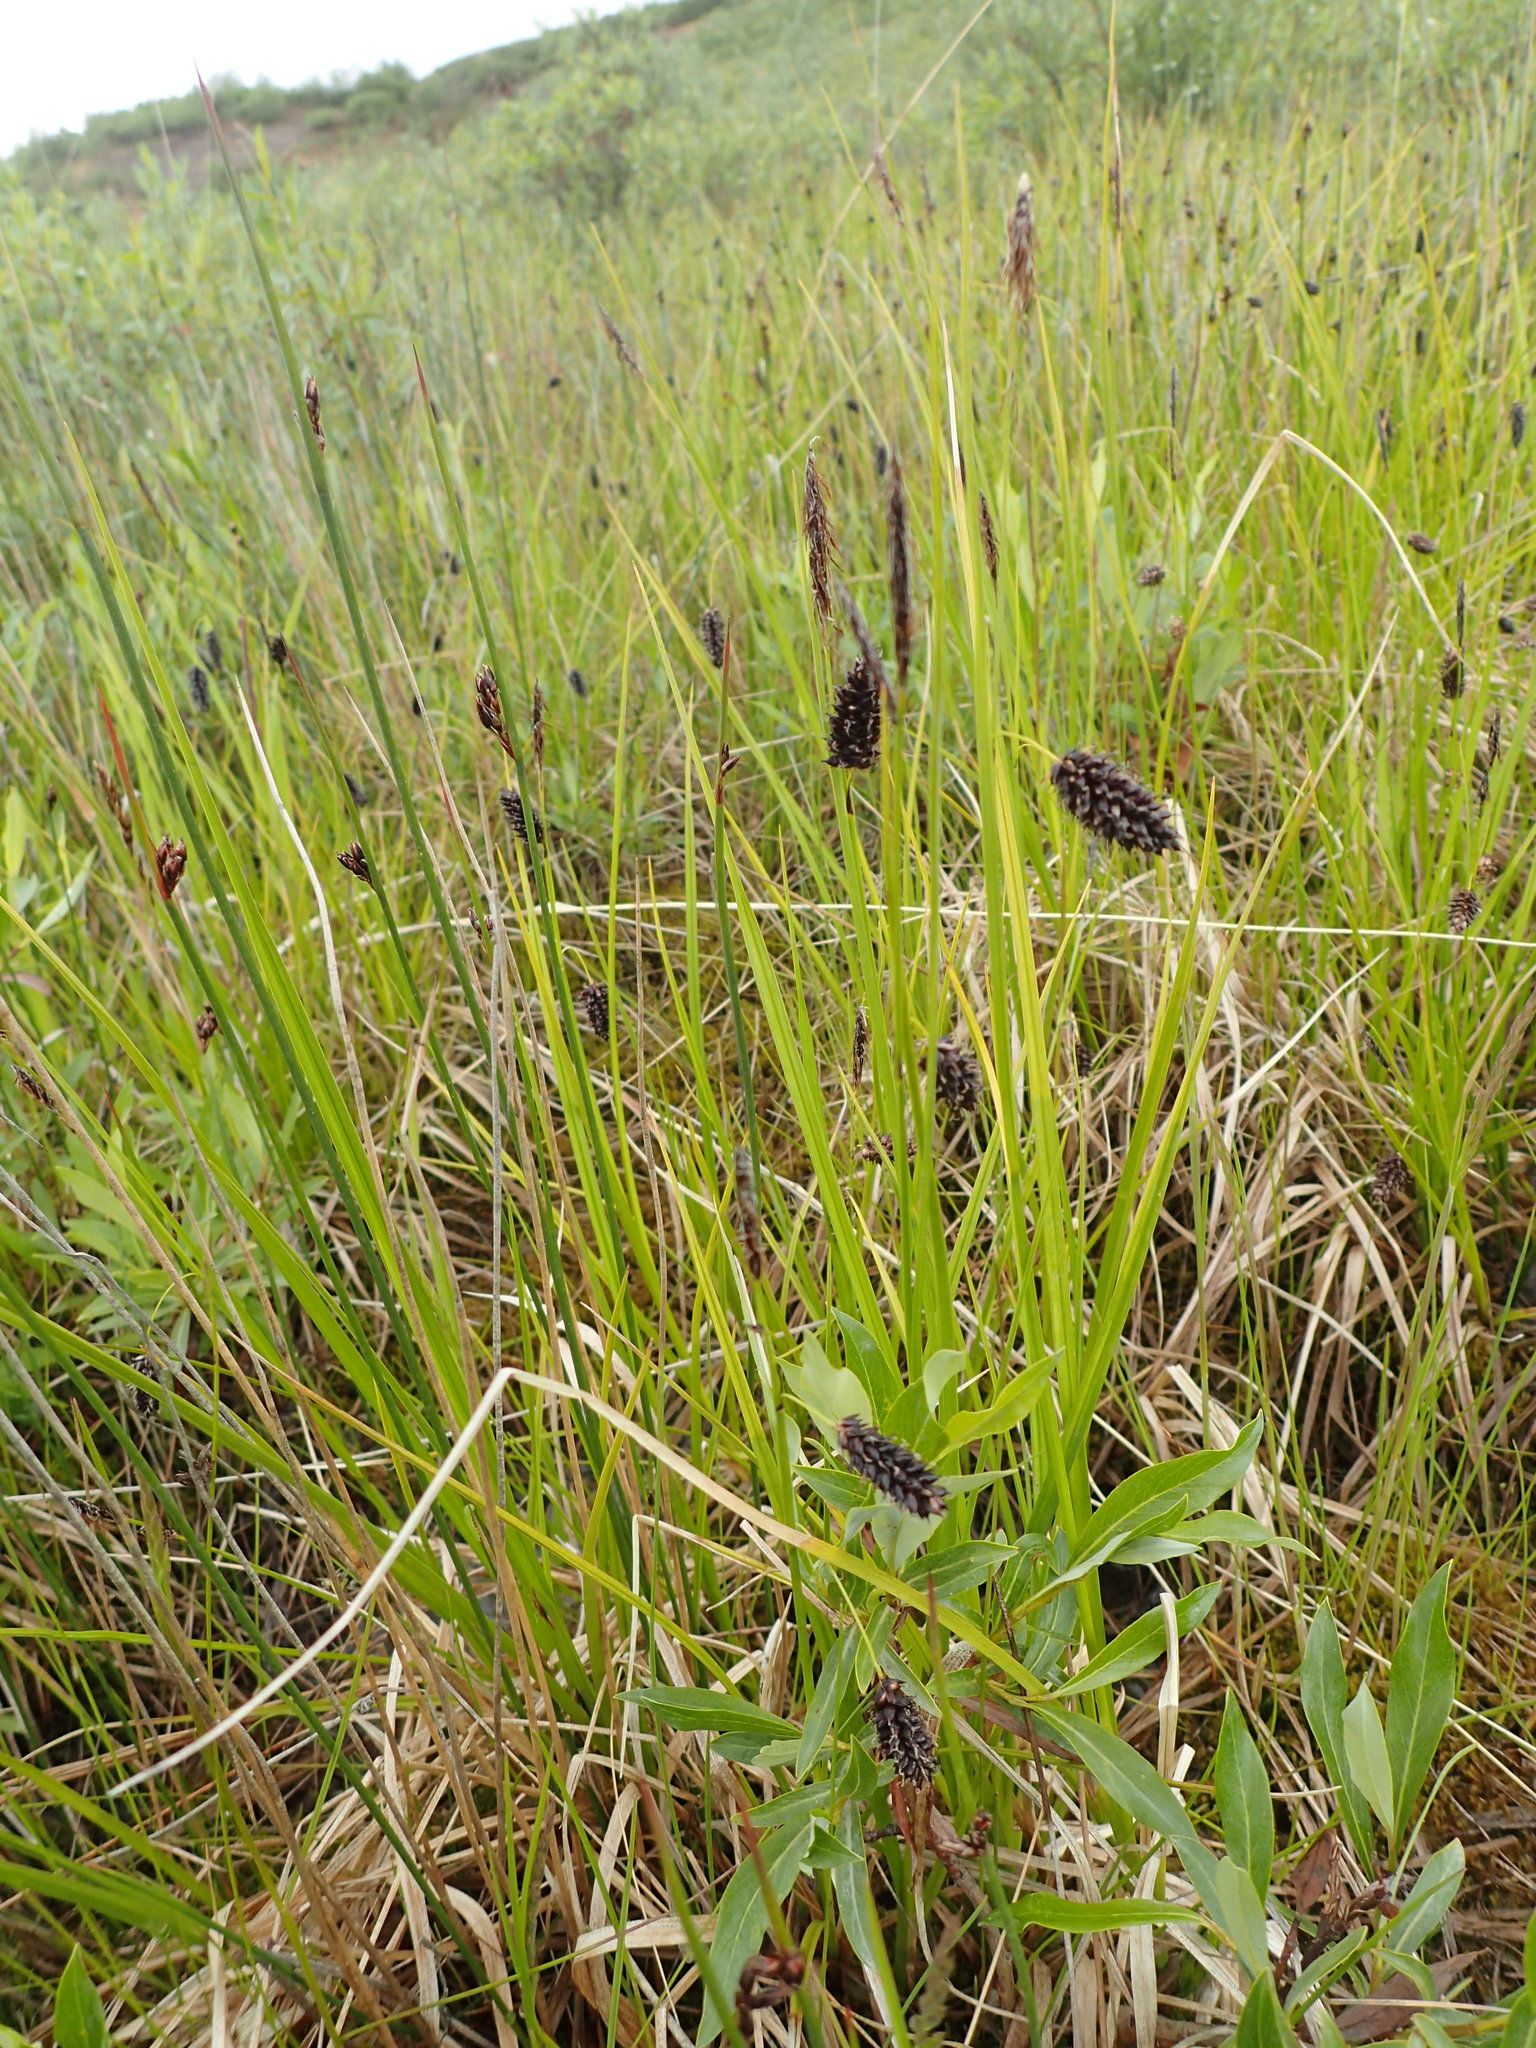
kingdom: Plantae
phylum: Tracheophyta
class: Liliopsida
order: Poales
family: Cyperaceae
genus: Carex
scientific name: Carex saxatilis
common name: Russet sedge
